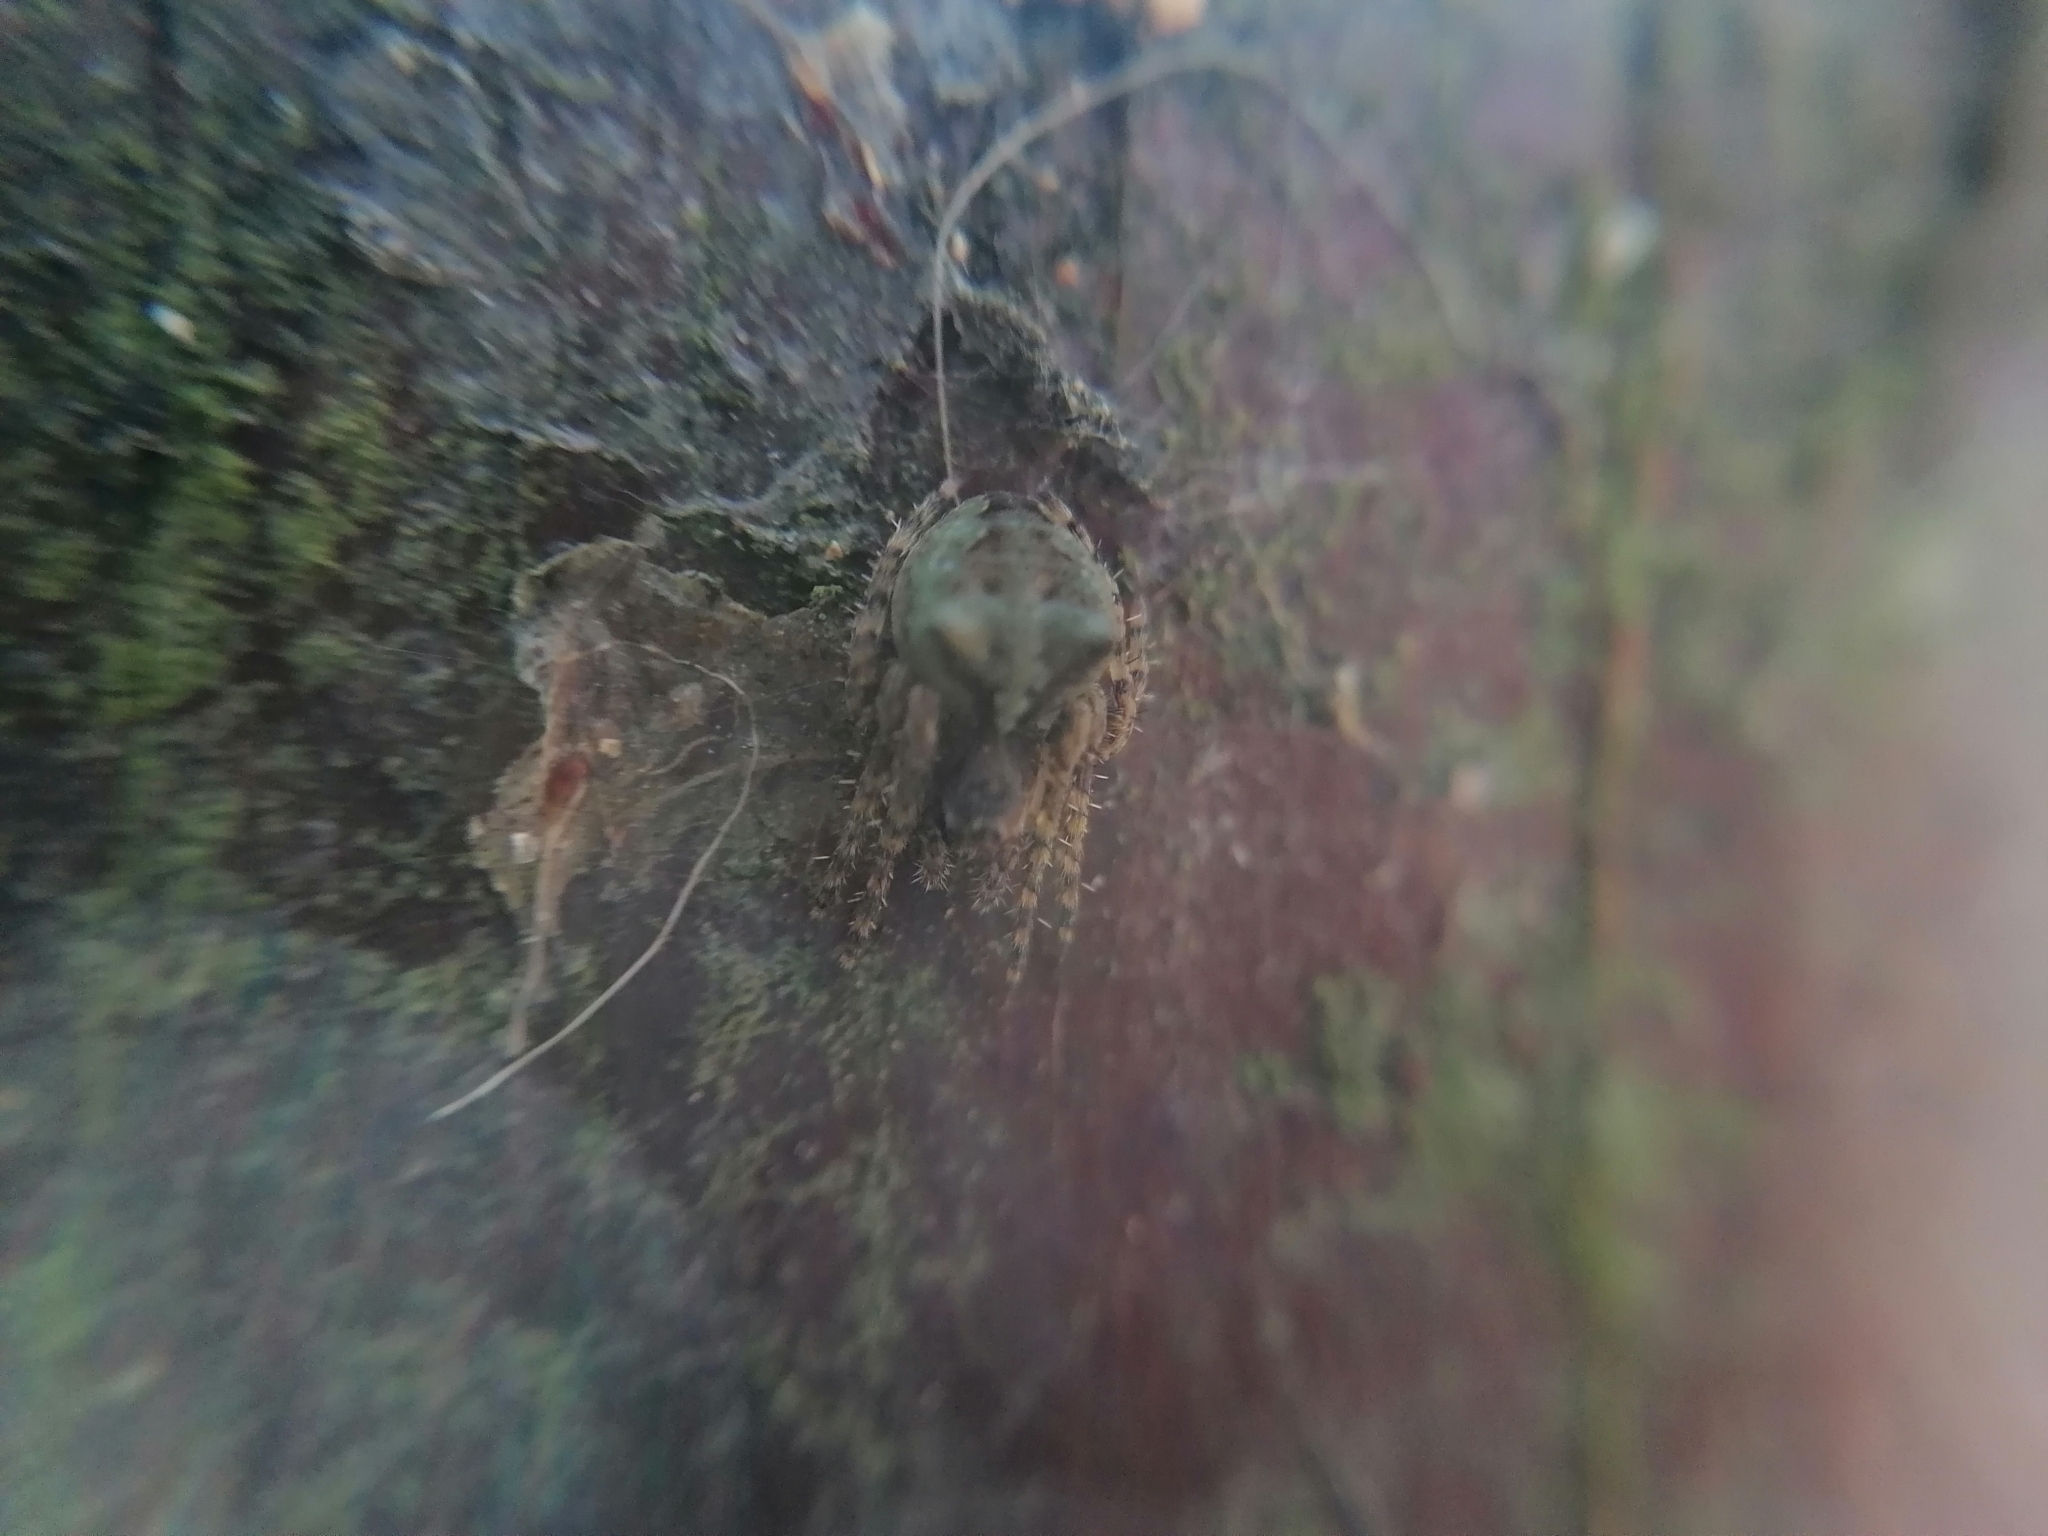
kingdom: Animalia
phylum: Arthropoda
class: Arachnida
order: Araneae
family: Araneidae
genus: Gibbaranea
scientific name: Gibbaranea gibbosa
